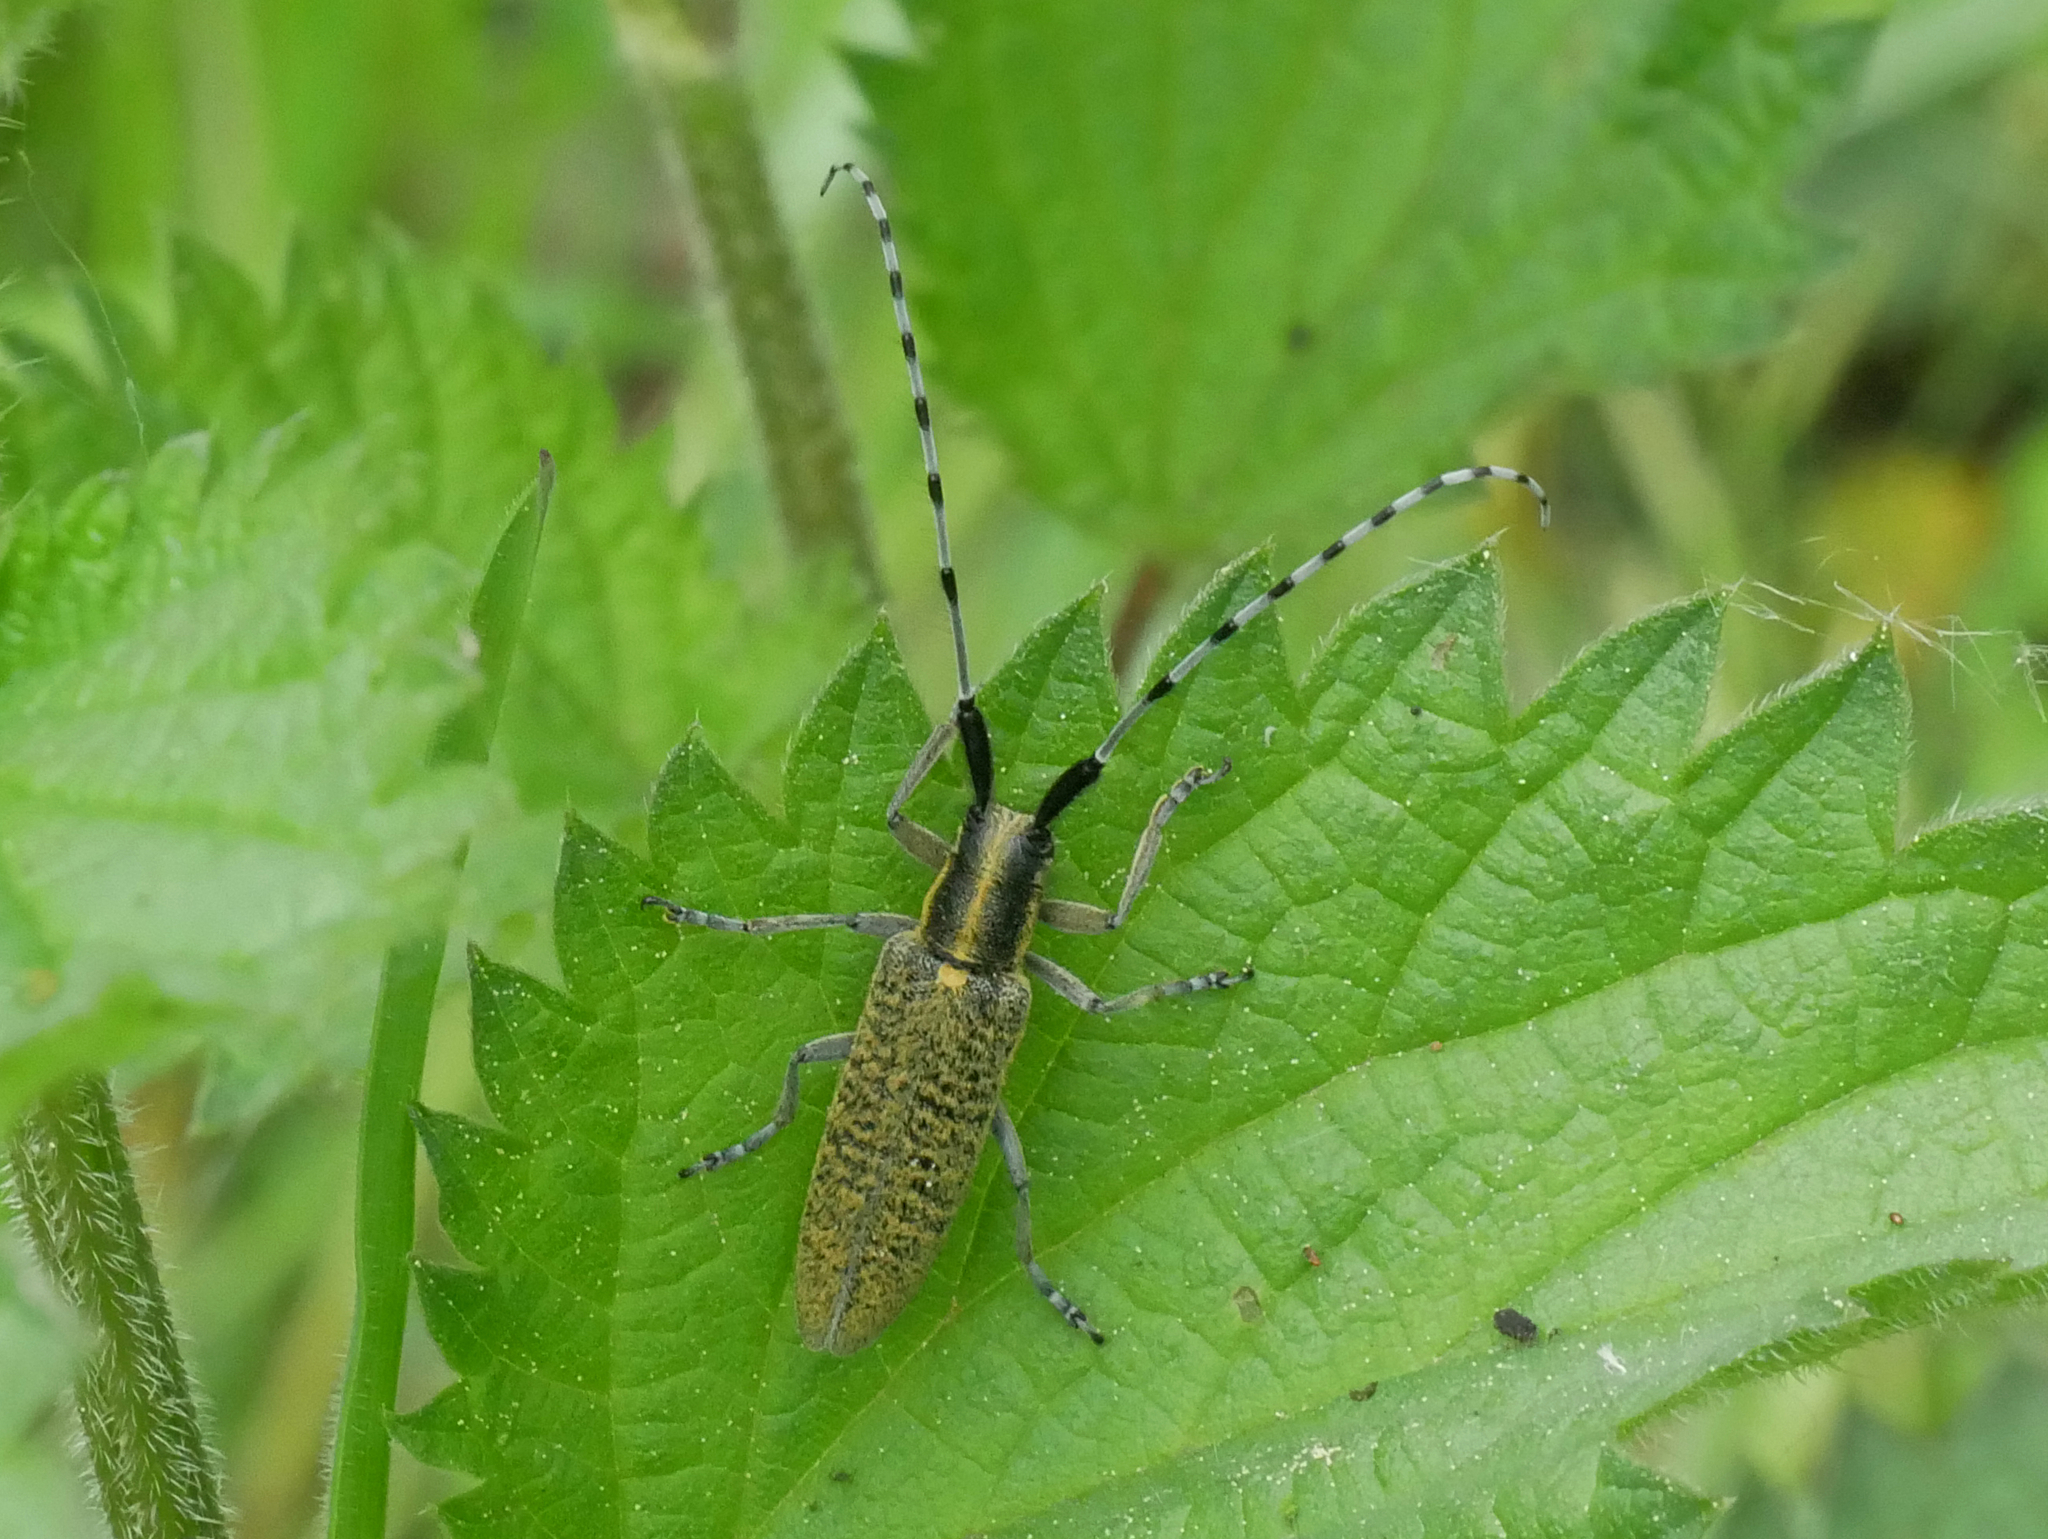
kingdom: Animalia
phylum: Arthropoda
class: Insecta
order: Coleoptera
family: Cerambycidae
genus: Agapanthia
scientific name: Agapanthia villosoviridescens
